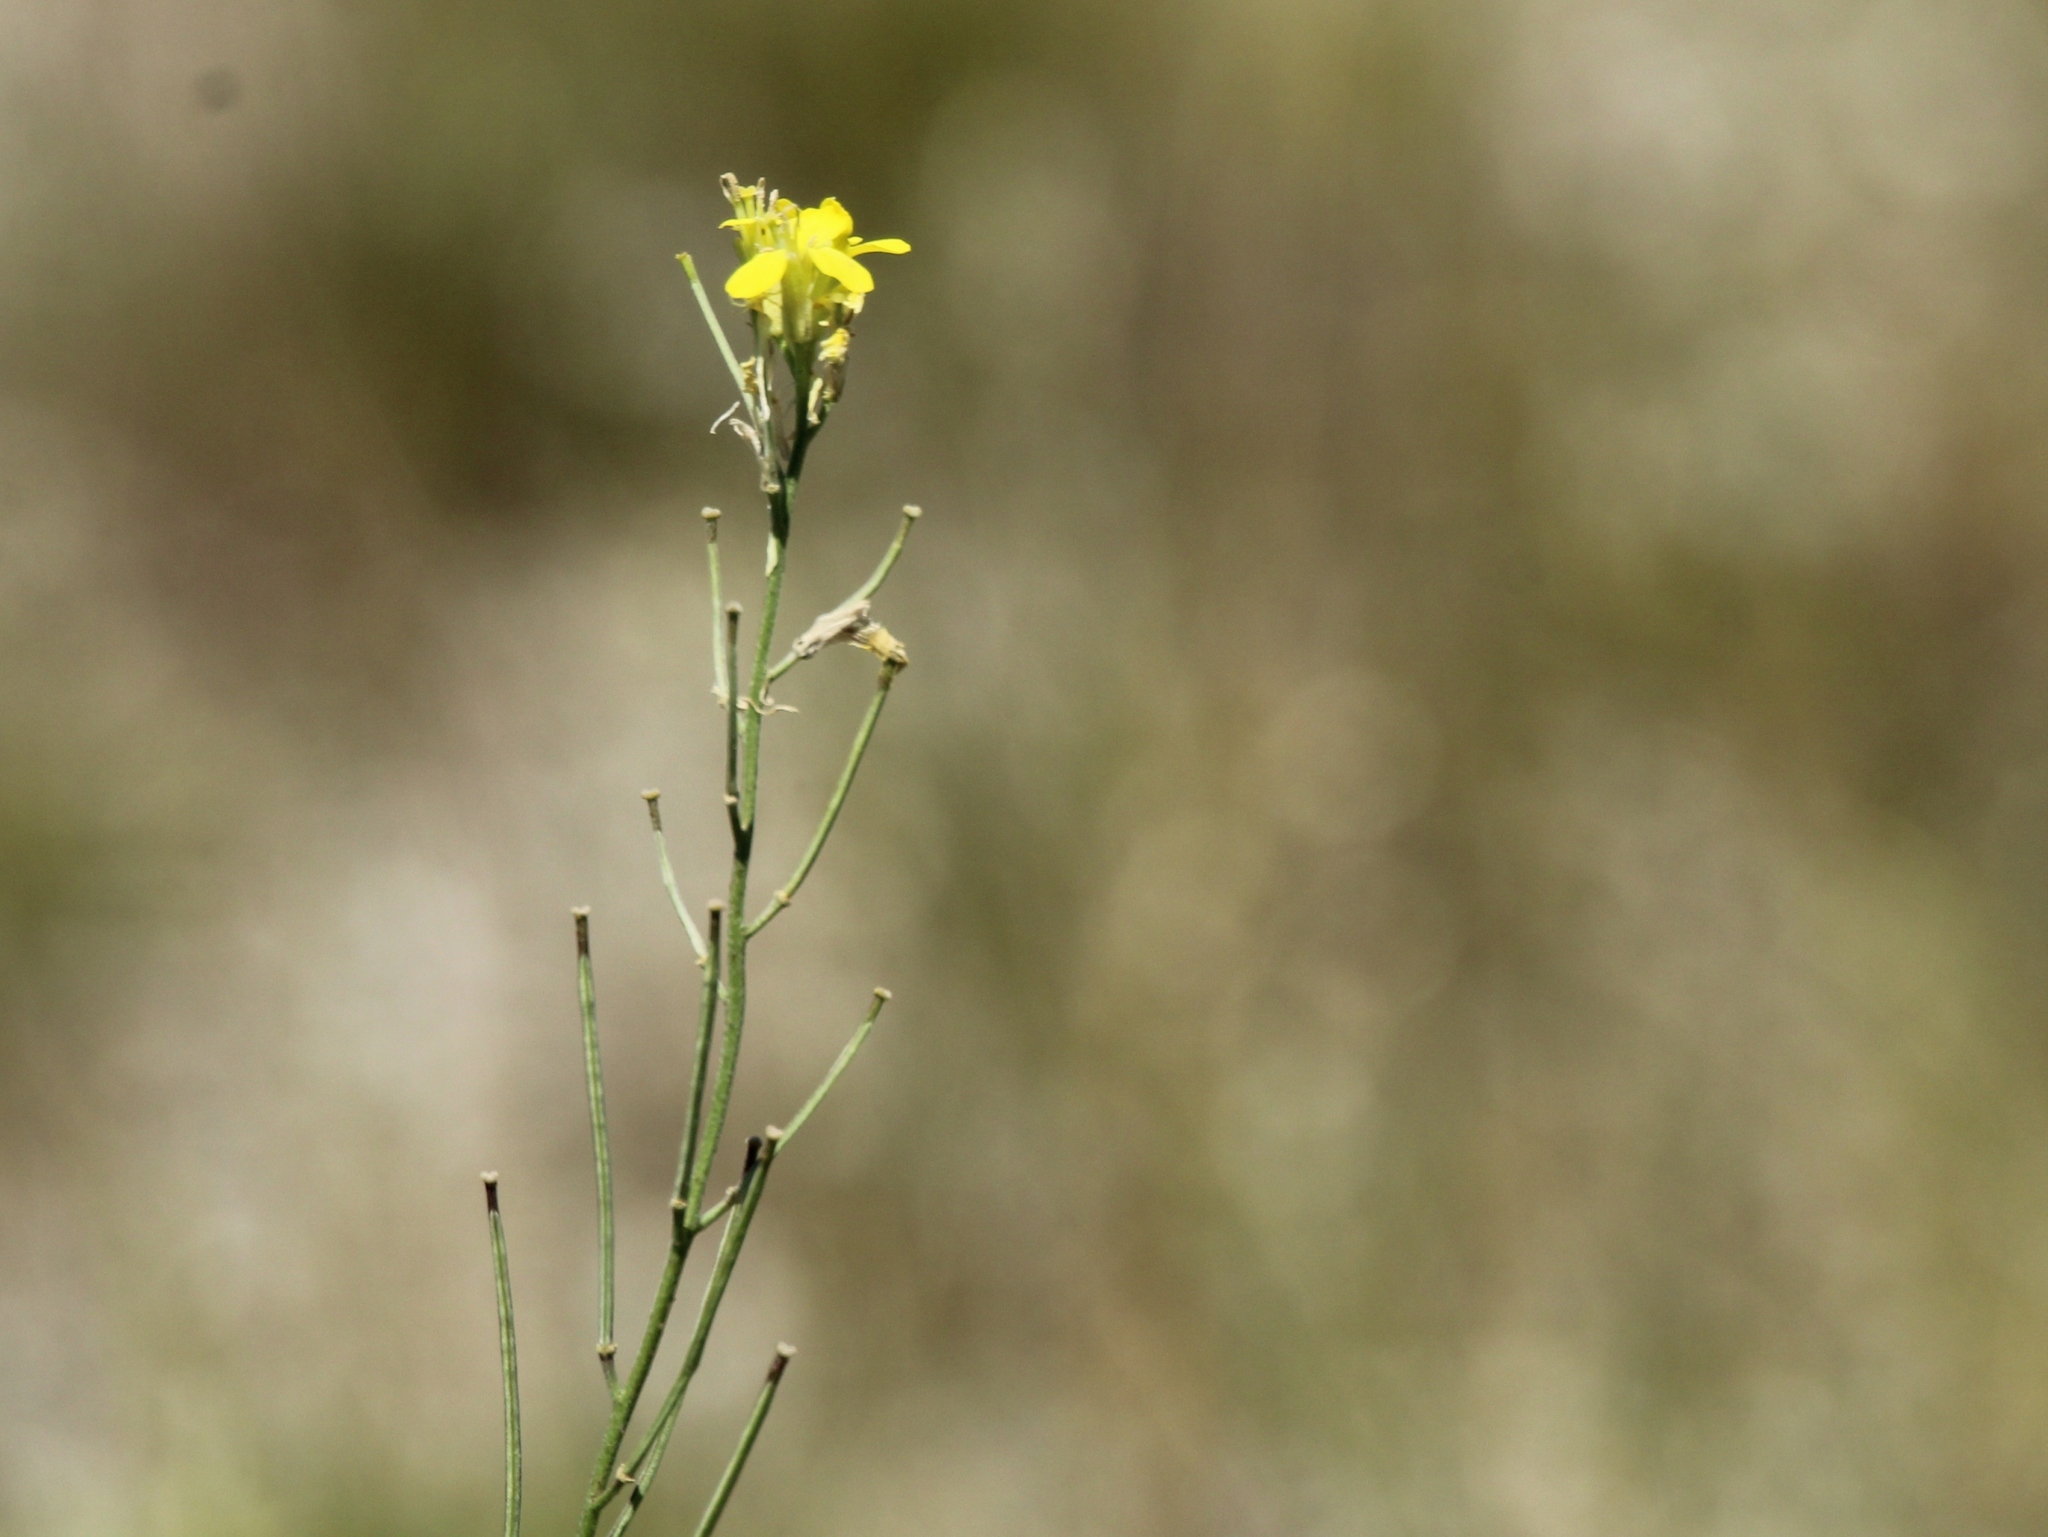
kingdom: Plantae
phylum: Tracheophyta
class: Magnoliopsida
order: Brassicales
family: Brassicaceae
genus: Erysimum
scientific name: Erysimum diffusum
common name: Diffuse wallflower
